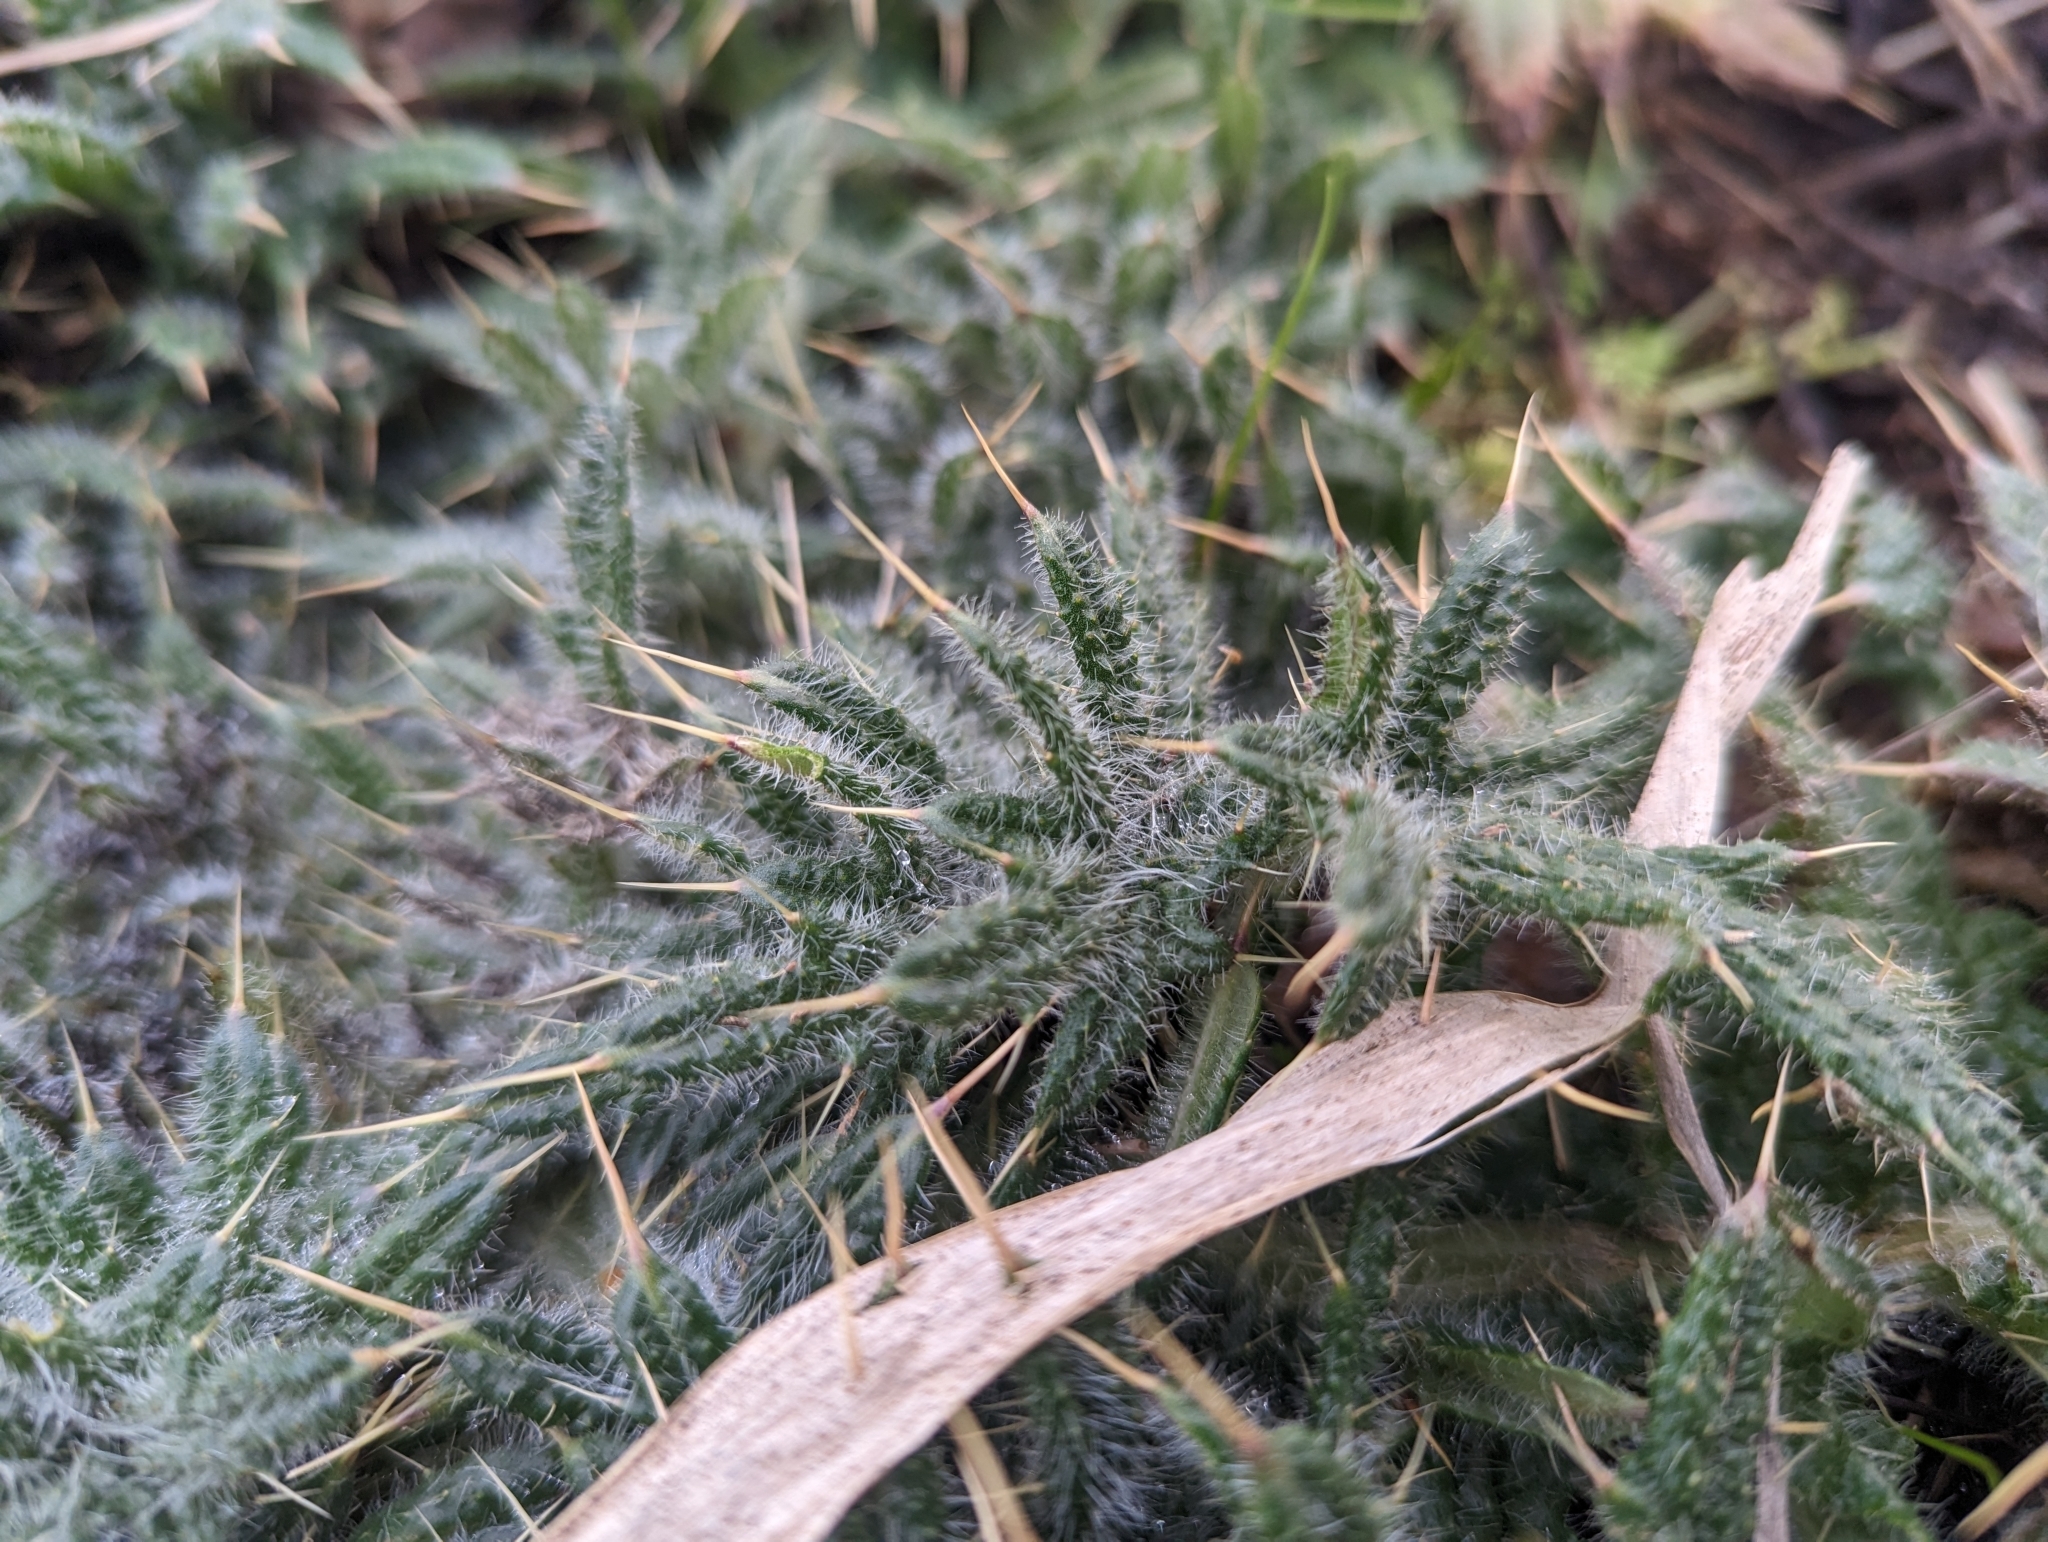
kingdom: Plantae
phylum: Tracheophyta
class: Magnoliopsida
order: Asterales
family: Asteraceae
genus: Cirsium
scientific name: Cirsium vulgare
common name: Bull thistle
